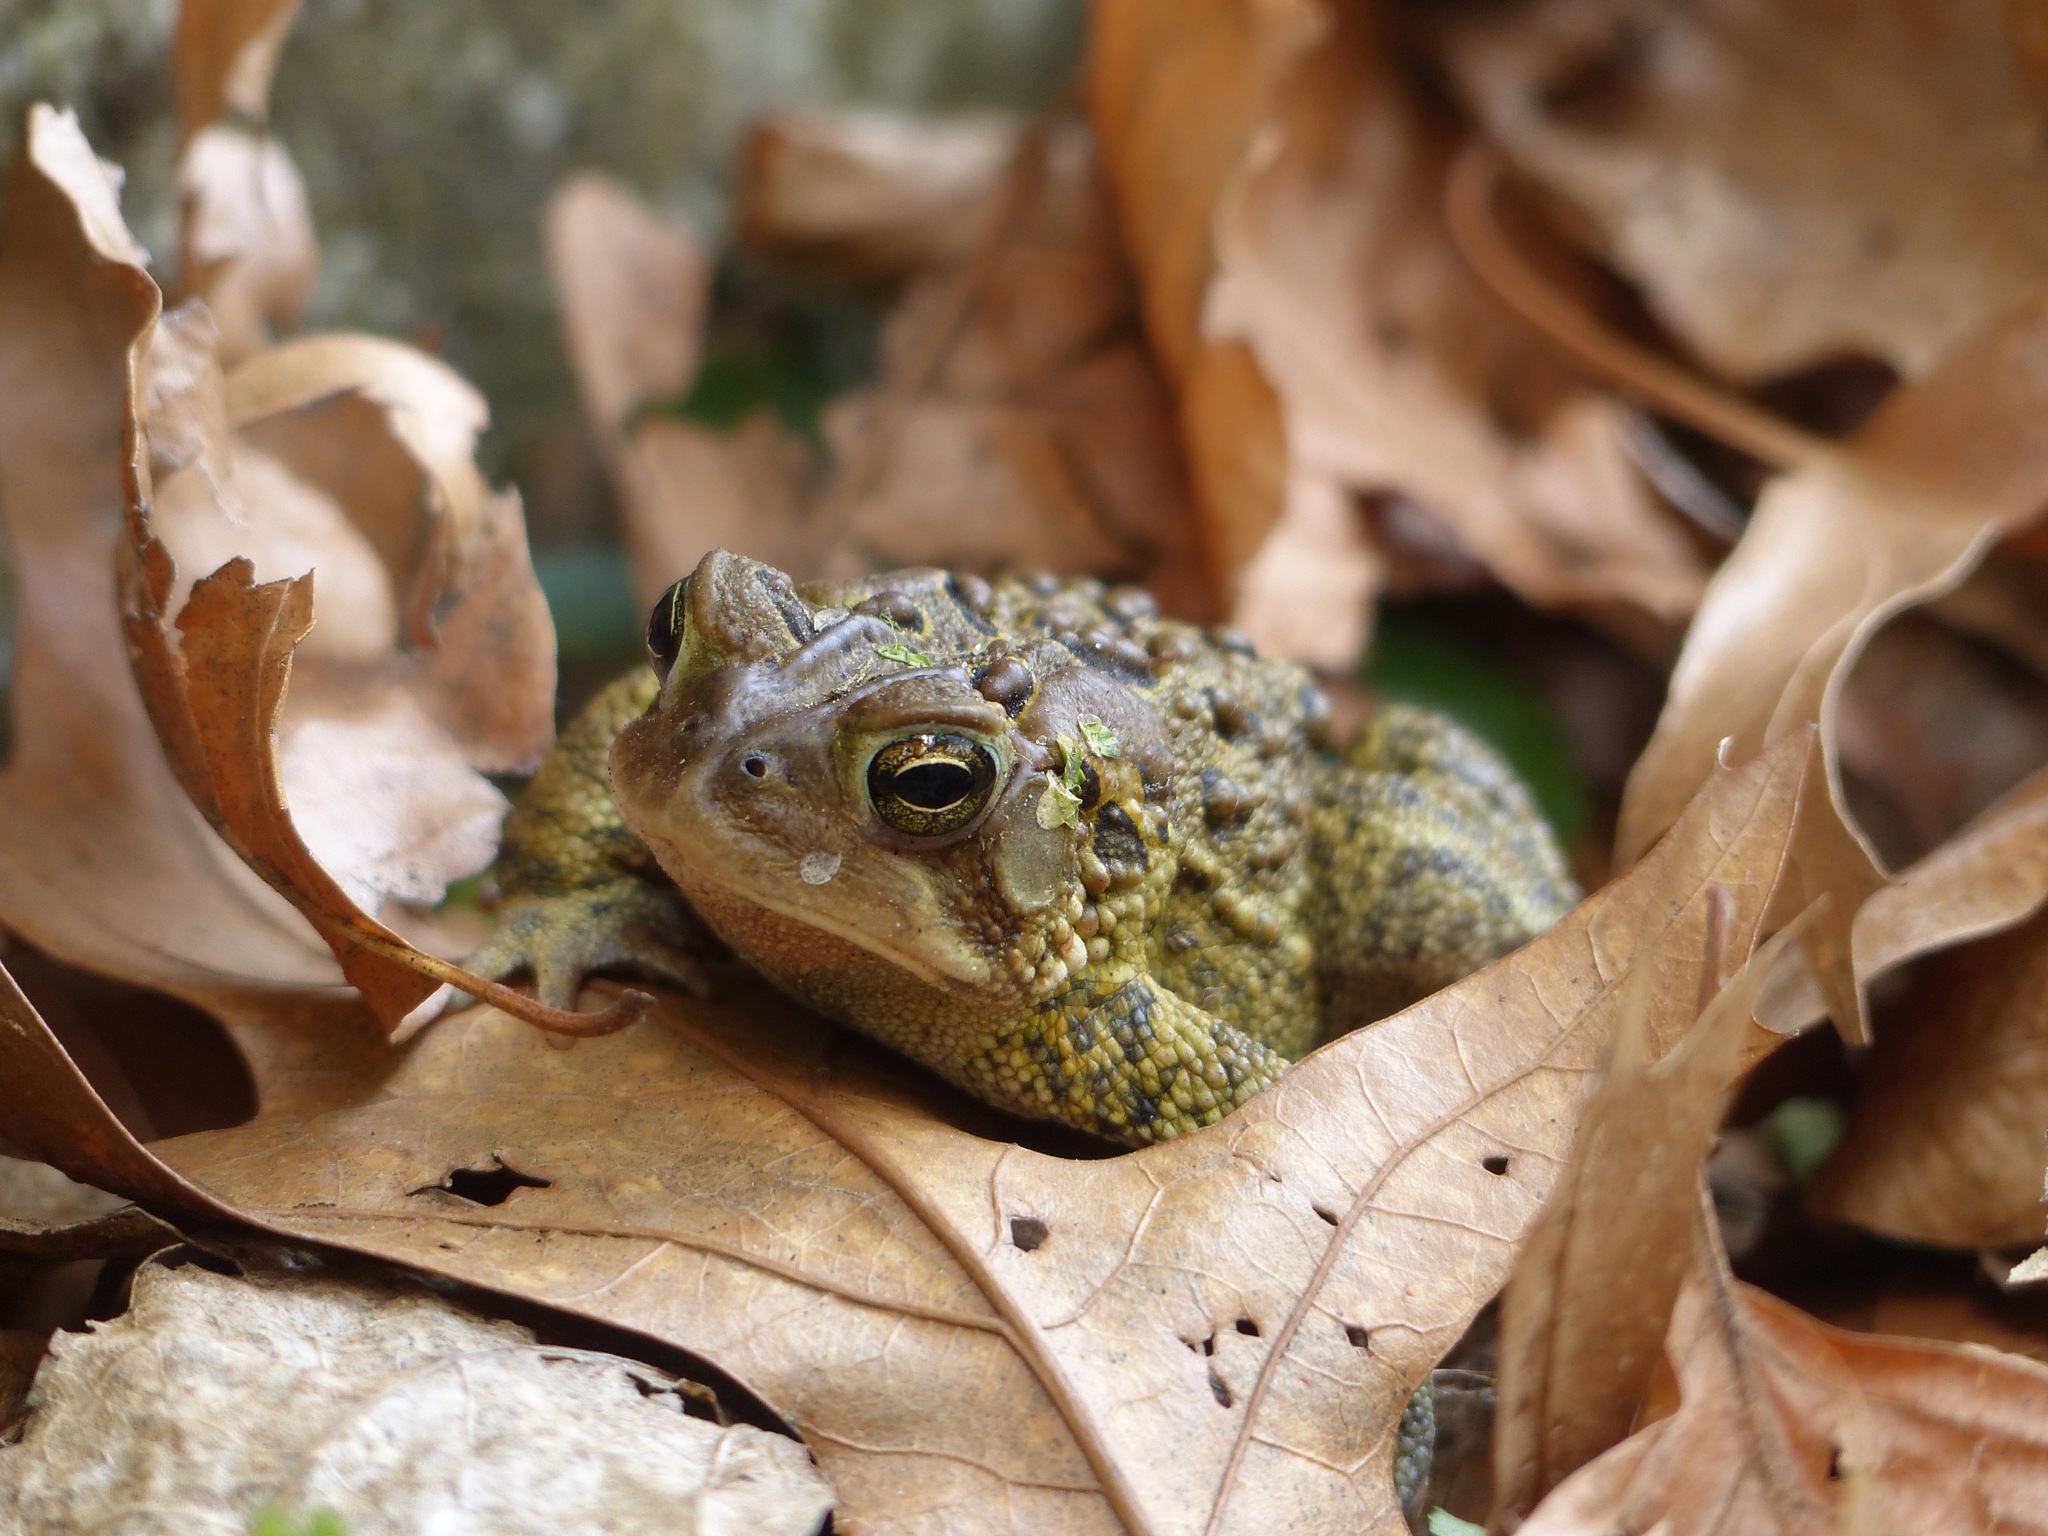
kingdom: Animalia
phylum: Chordata
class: Amphibia
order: Anura
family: Bufonidae
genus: Anaxyrus
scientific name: Anaxyrus americanus
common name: American toad
